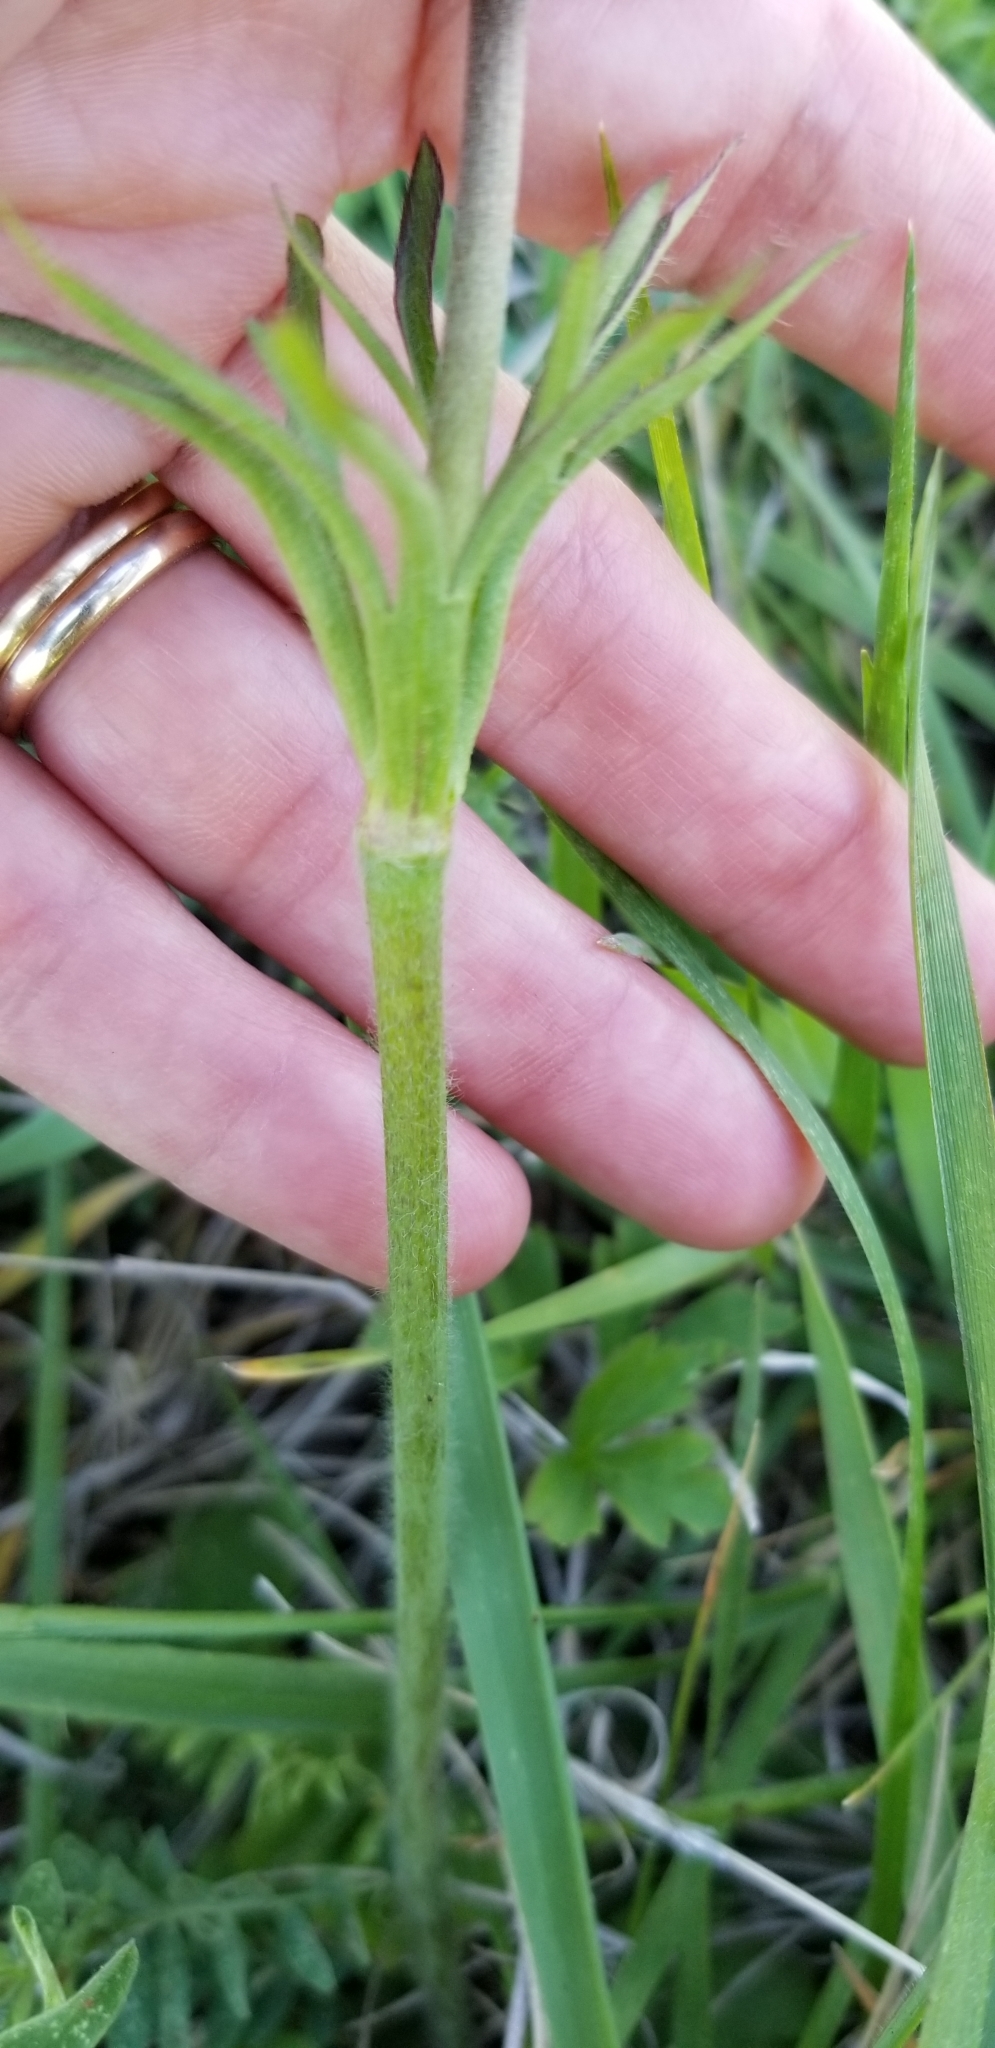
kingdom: Plantae
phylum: Tracheophyta
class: Magnoliopsida
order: Ranunculales
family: Ranunculaceae
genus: Anemone
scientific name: Anemone berlandieri
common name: Ten-petal anemone
